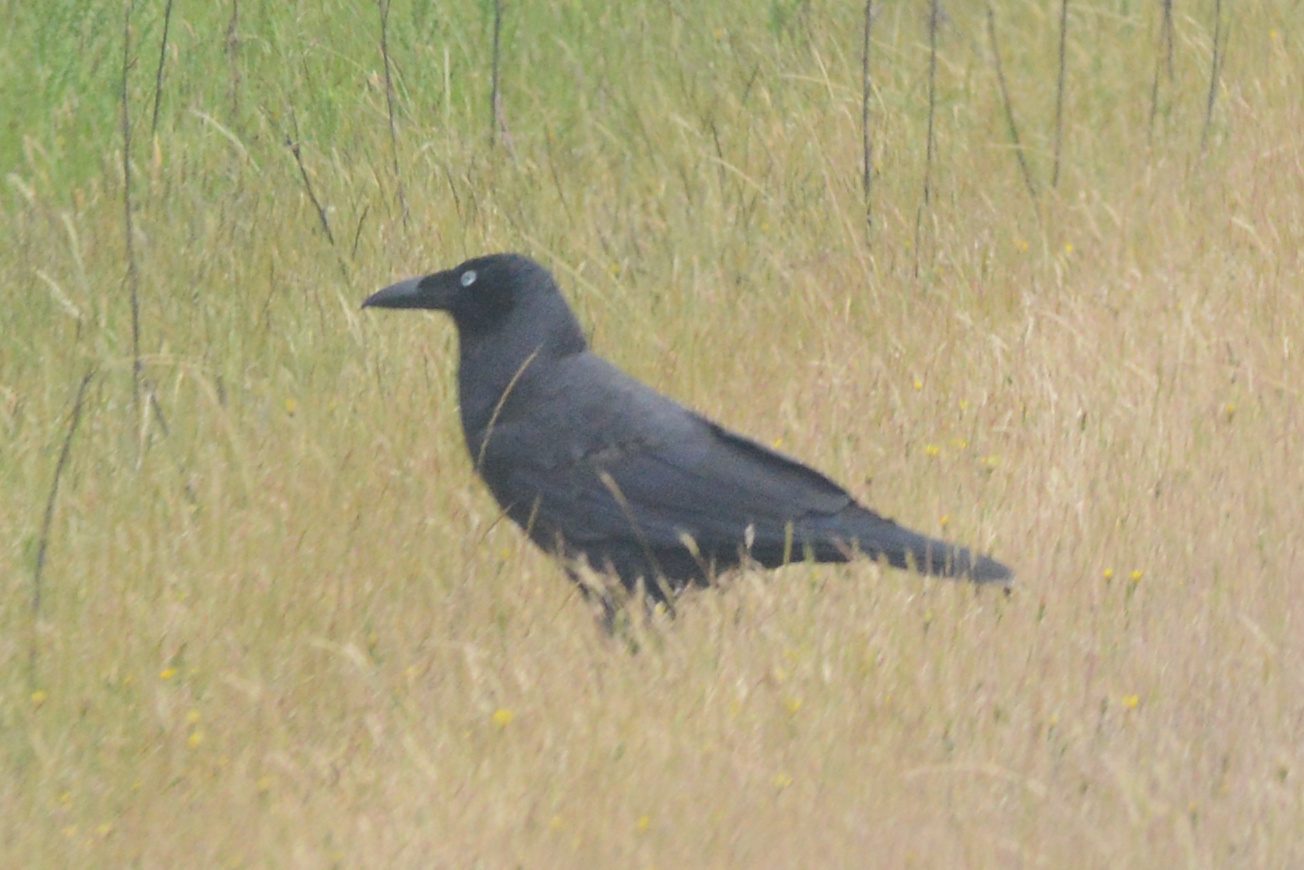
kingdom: Animalia
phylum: Chordata
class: Aves
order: Passeriformes
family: Corvidae
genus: Corvus
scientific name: Corvus tasmanicus
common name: Forest raven
